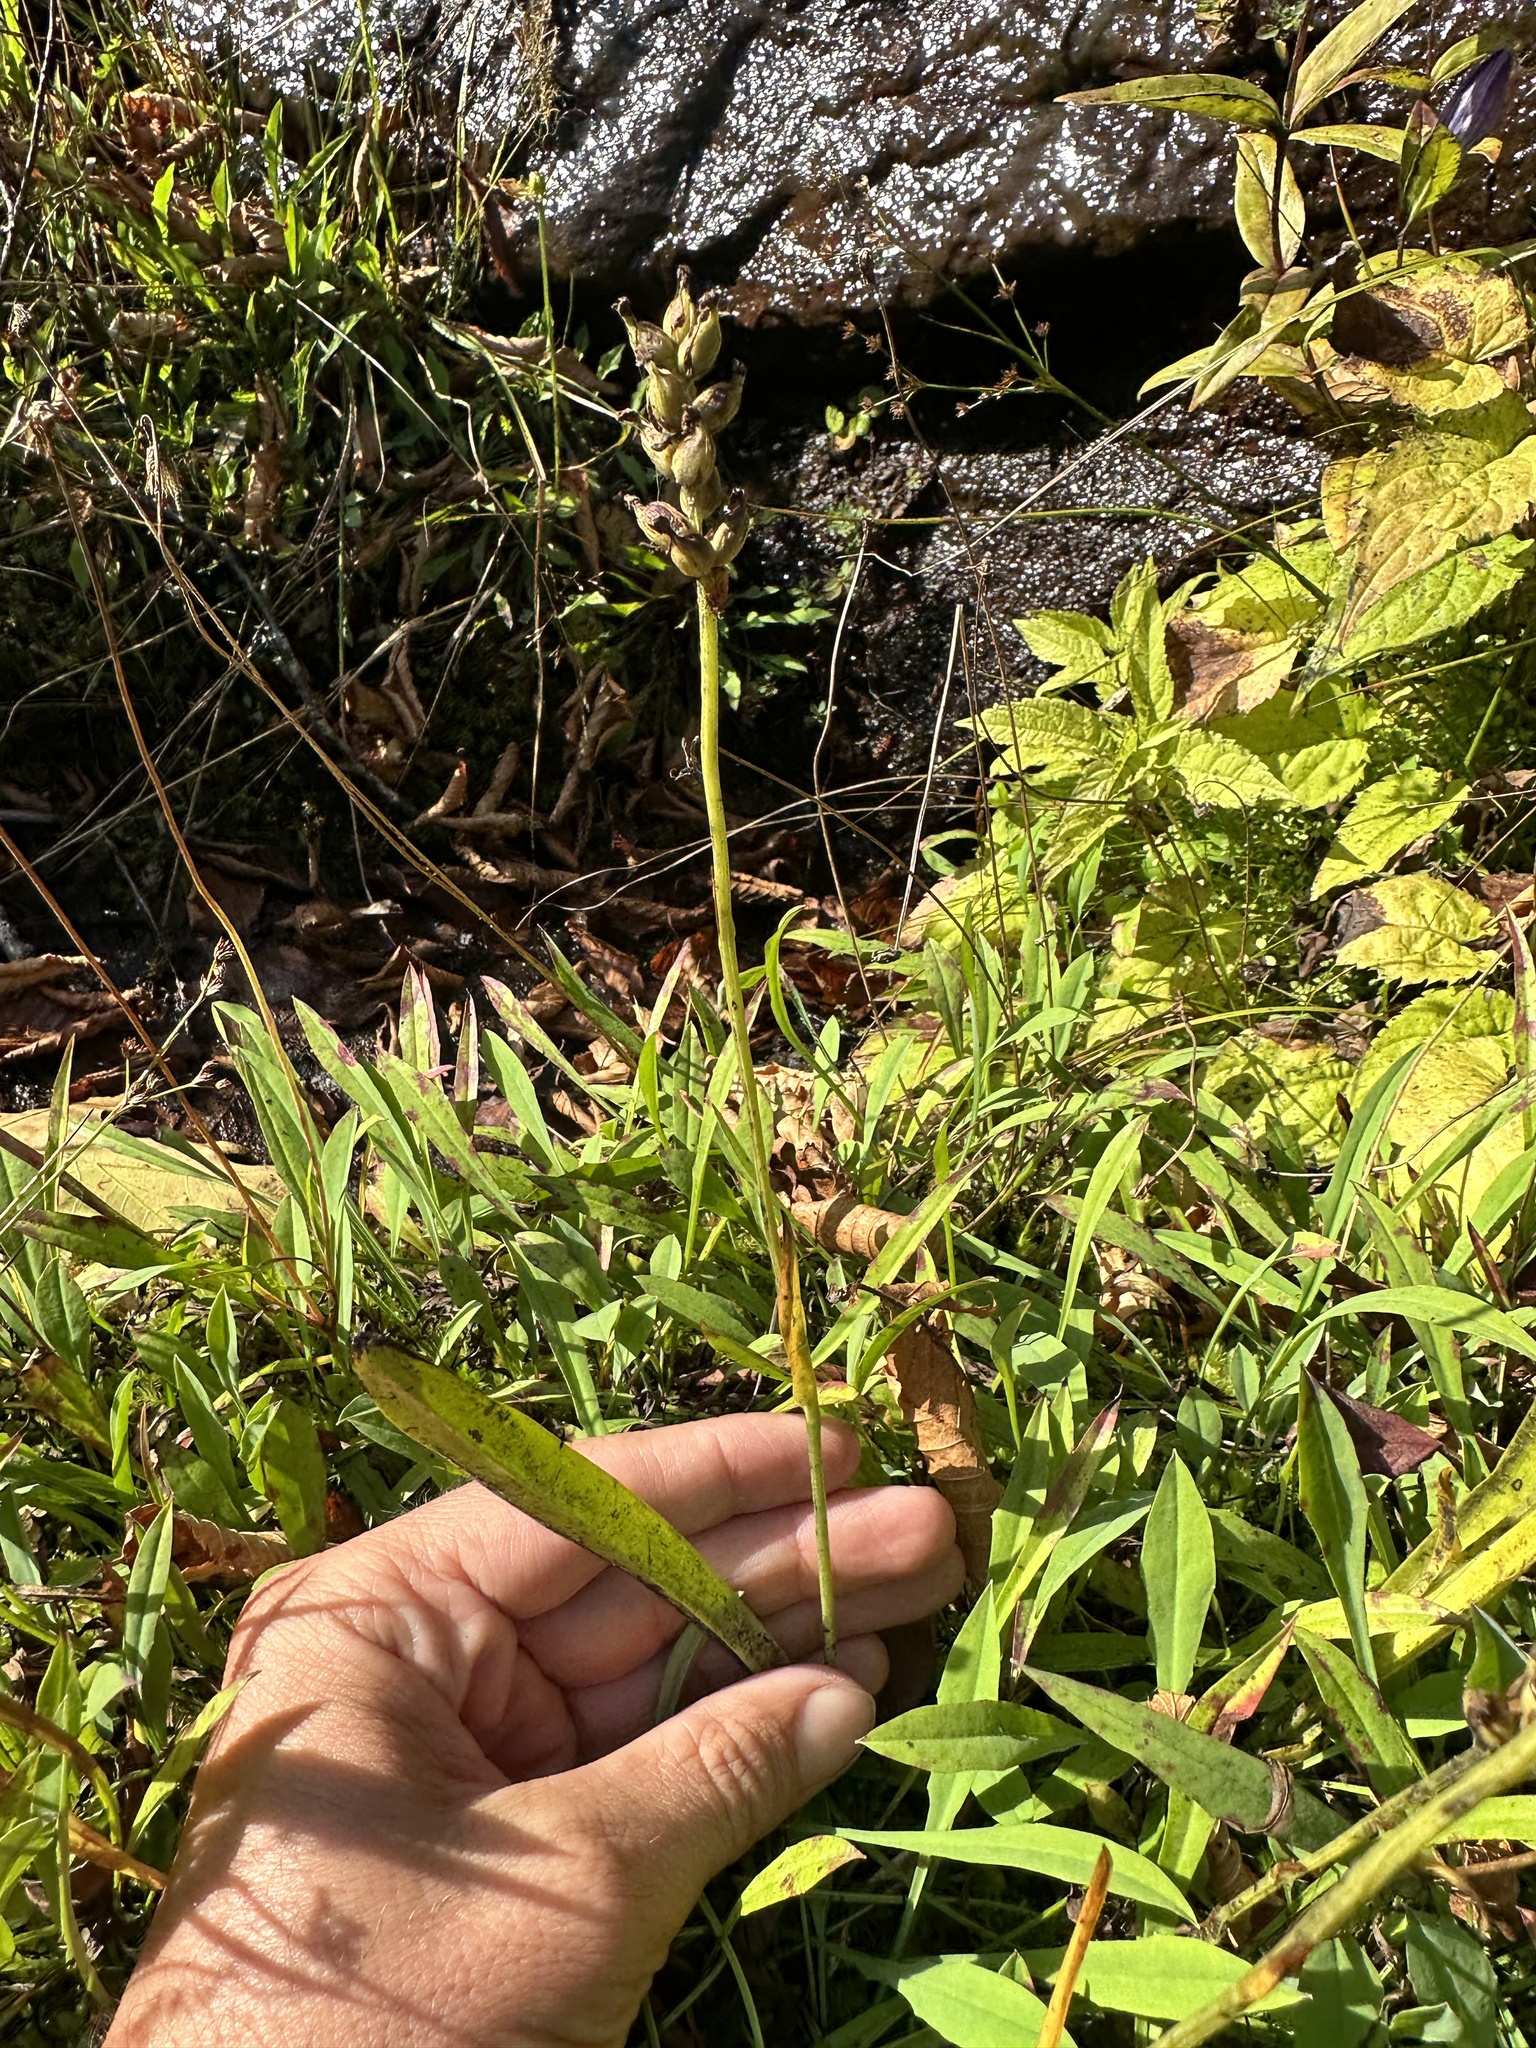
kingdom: Plantae
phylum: Tracheophyta
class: Liliopsida
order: Asparagales
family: Orchidaceae
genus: Platanthera
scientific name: Platanthera clavellata
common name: Club-spur orchid
